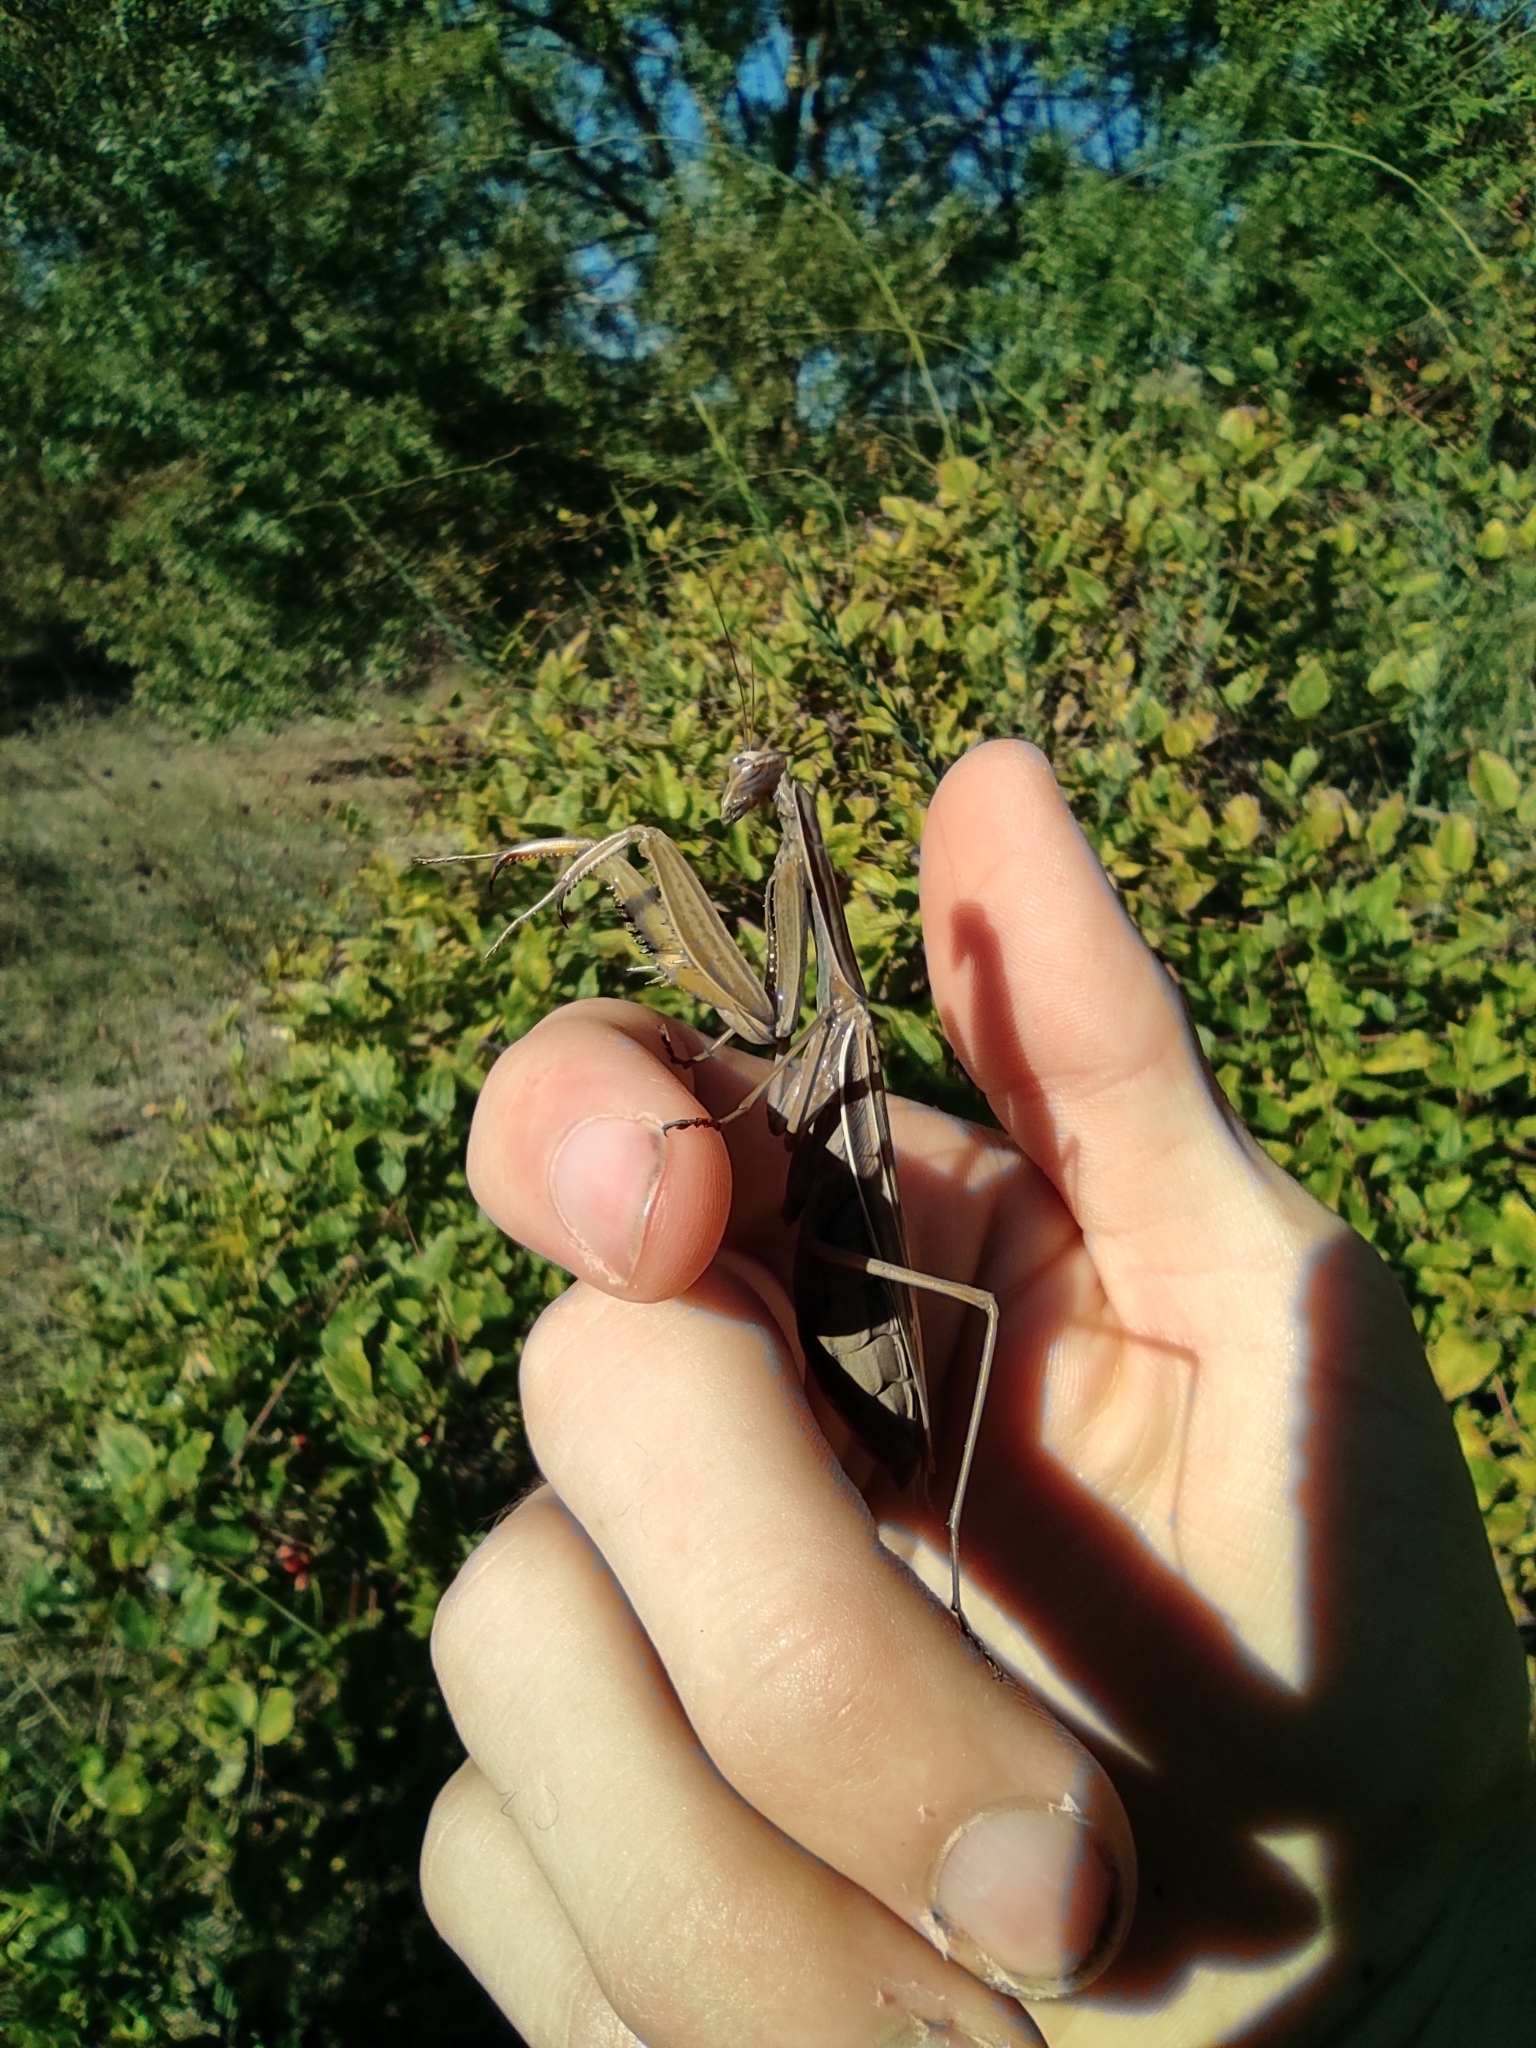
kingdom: Animalia
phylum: Arthropoda
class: Insecta
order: Mantodea
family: Mantidae
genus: Mantis
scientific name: Mantis religiosa
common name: Praying mantis
